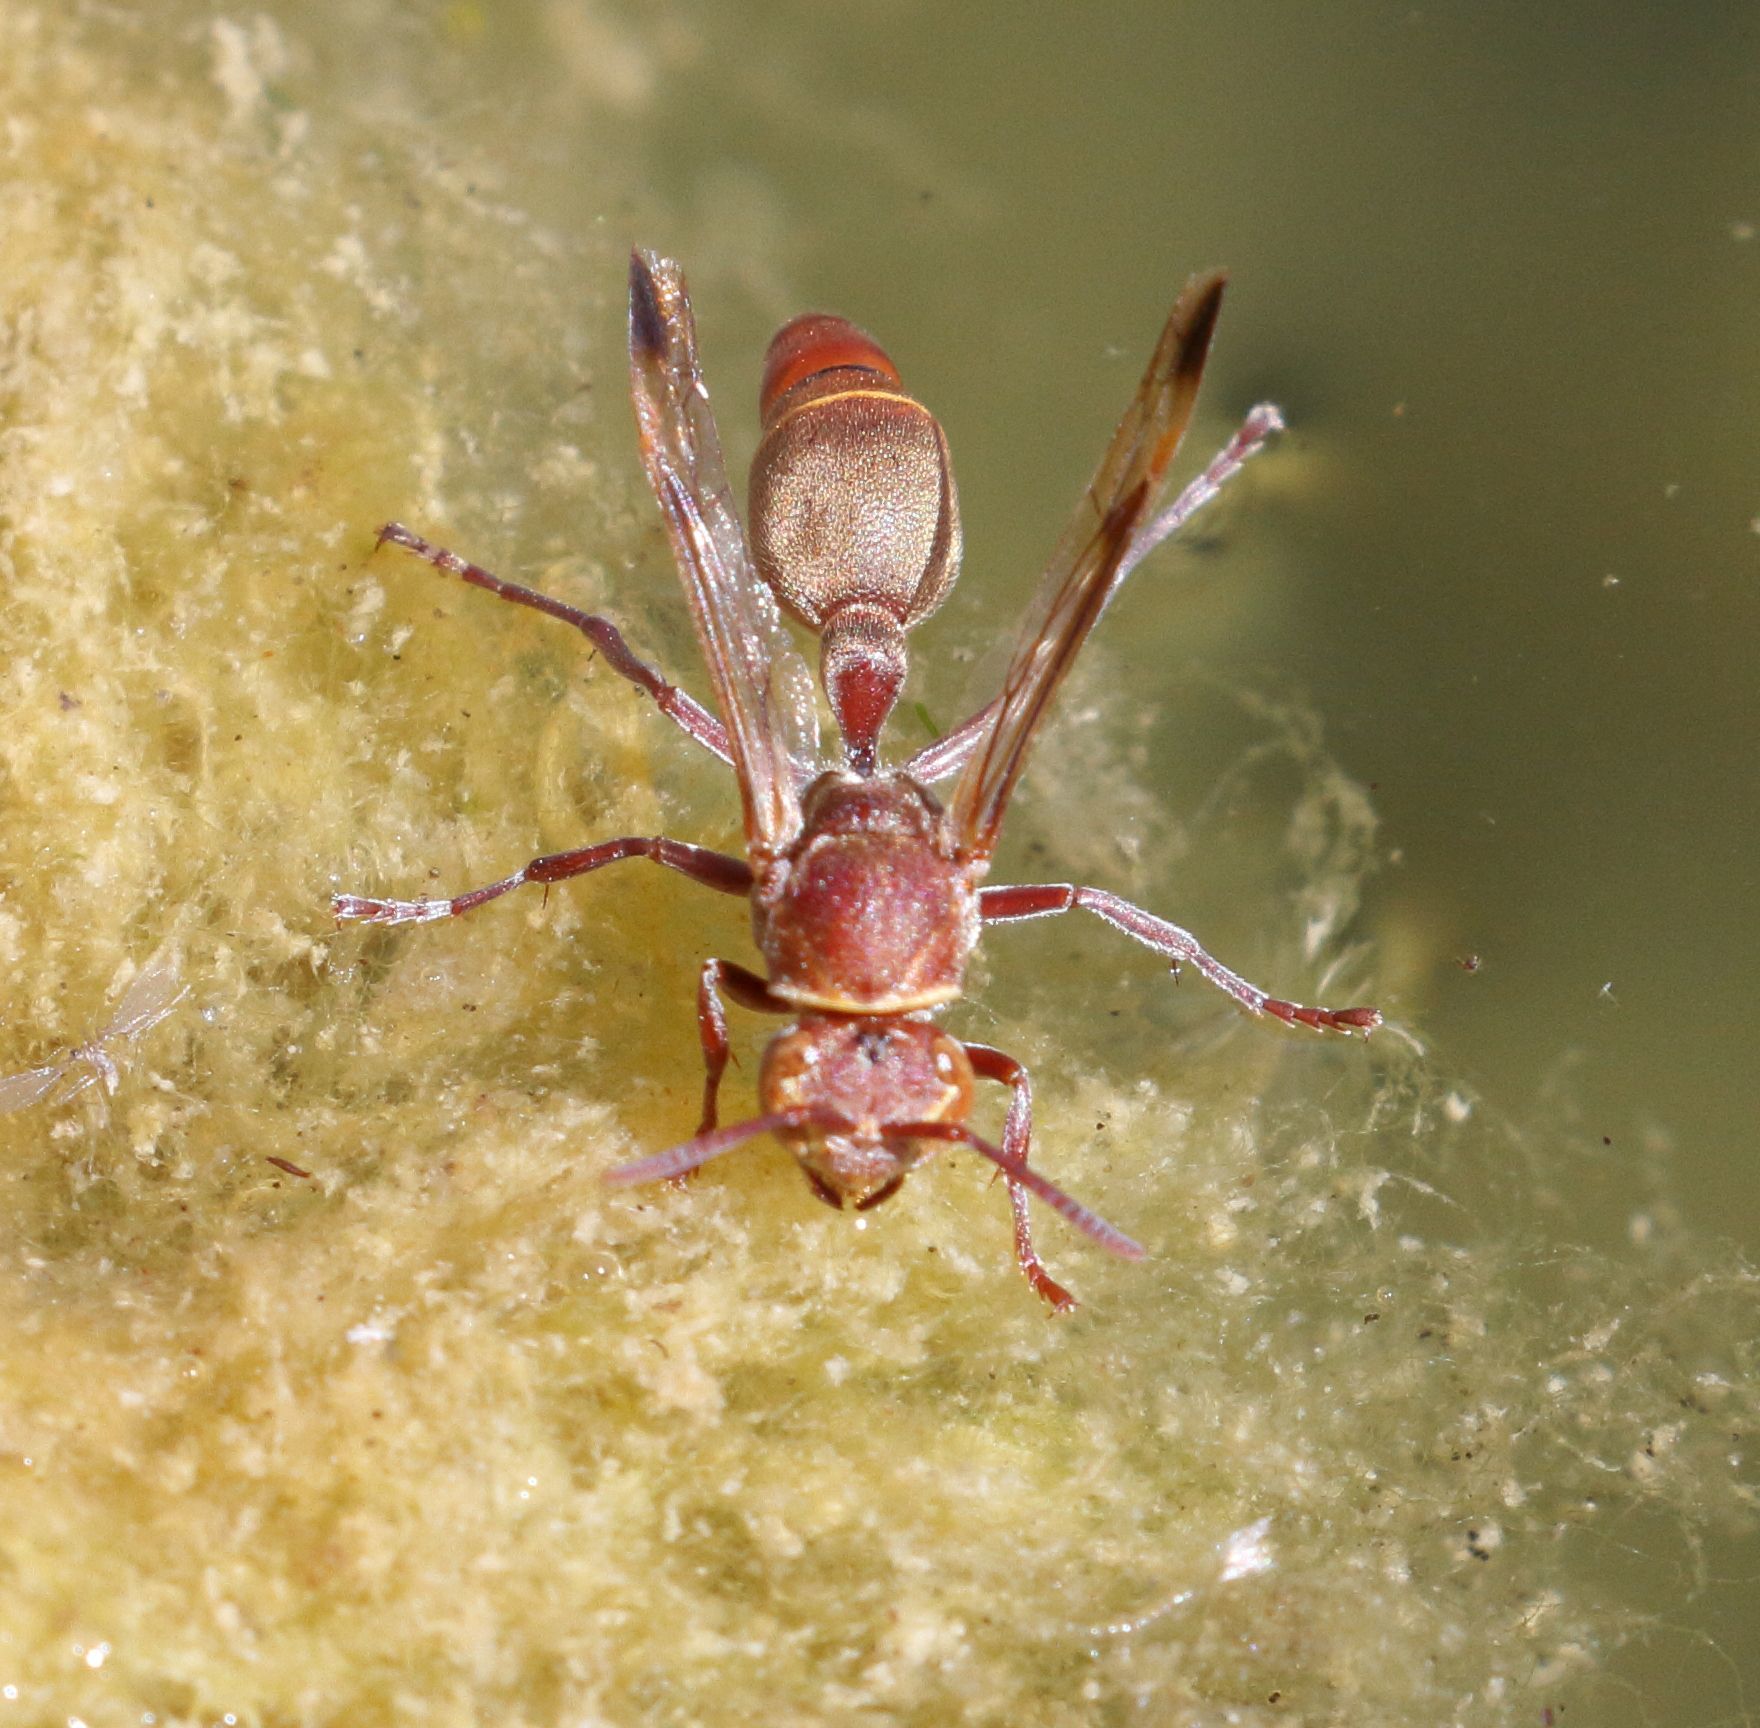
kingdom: Animalia
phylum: Arthropoda
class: Insecta
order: Hymenoptera
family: Vespidae
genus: Ropalidia
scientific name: Ropalidia distigma
